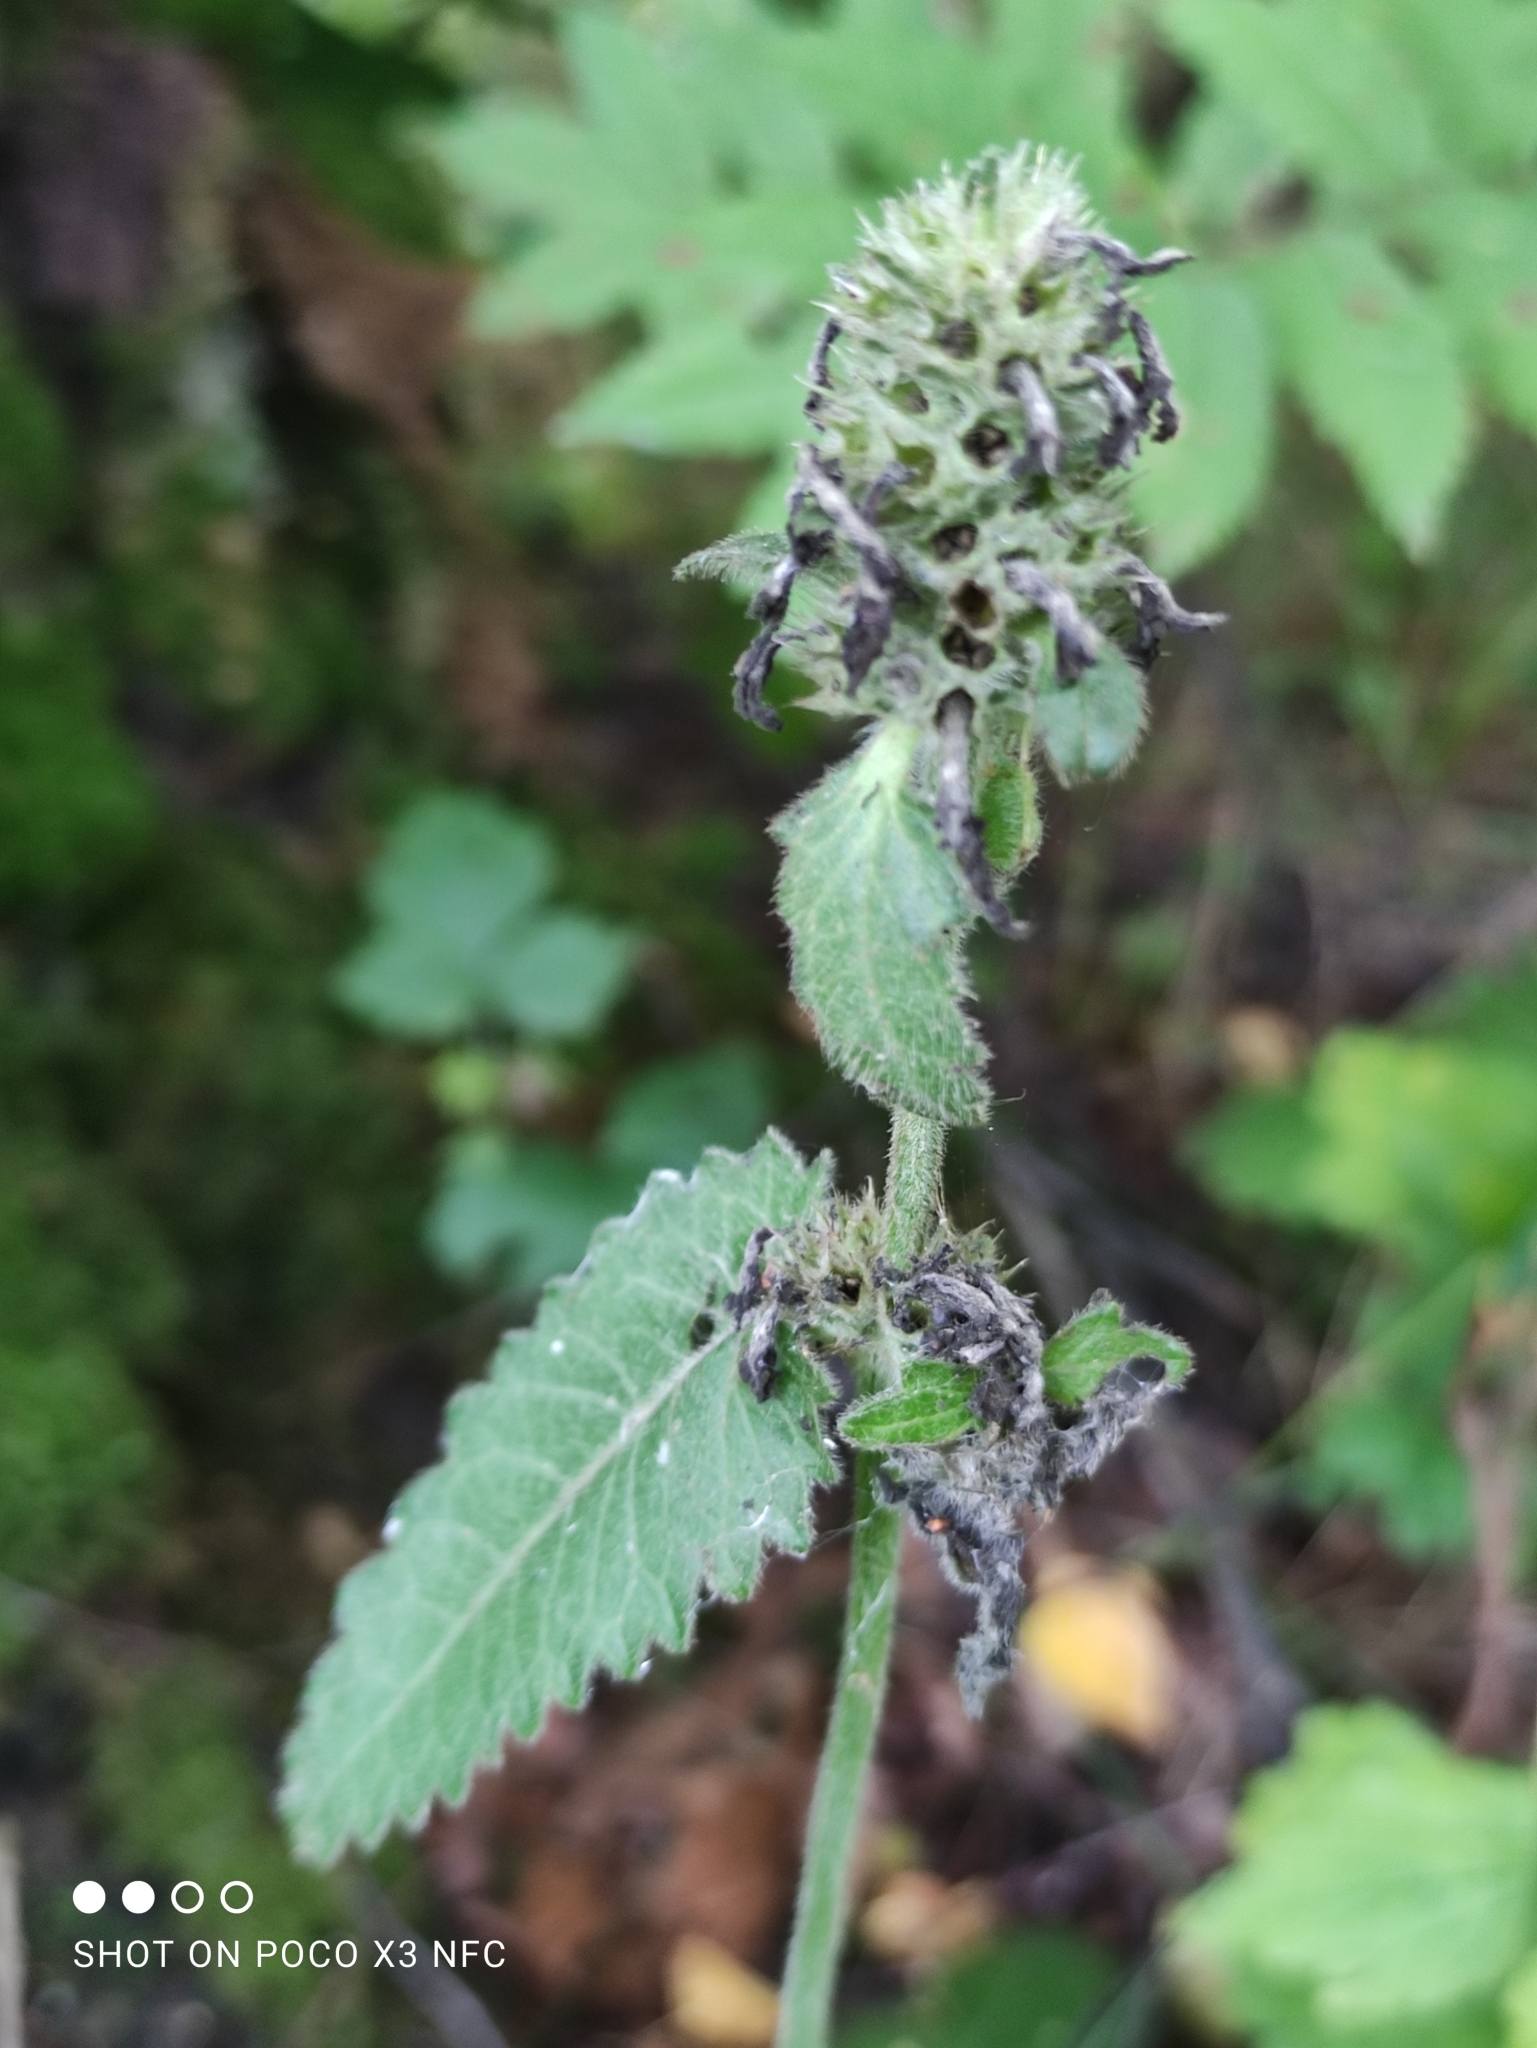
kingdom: Plantae
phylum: Tracheophyta
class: Magnoliopsida
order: Lamiales
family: Lamiaceae
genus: Betonica
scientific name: Betonica officinalis
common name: Bishop's-wort
